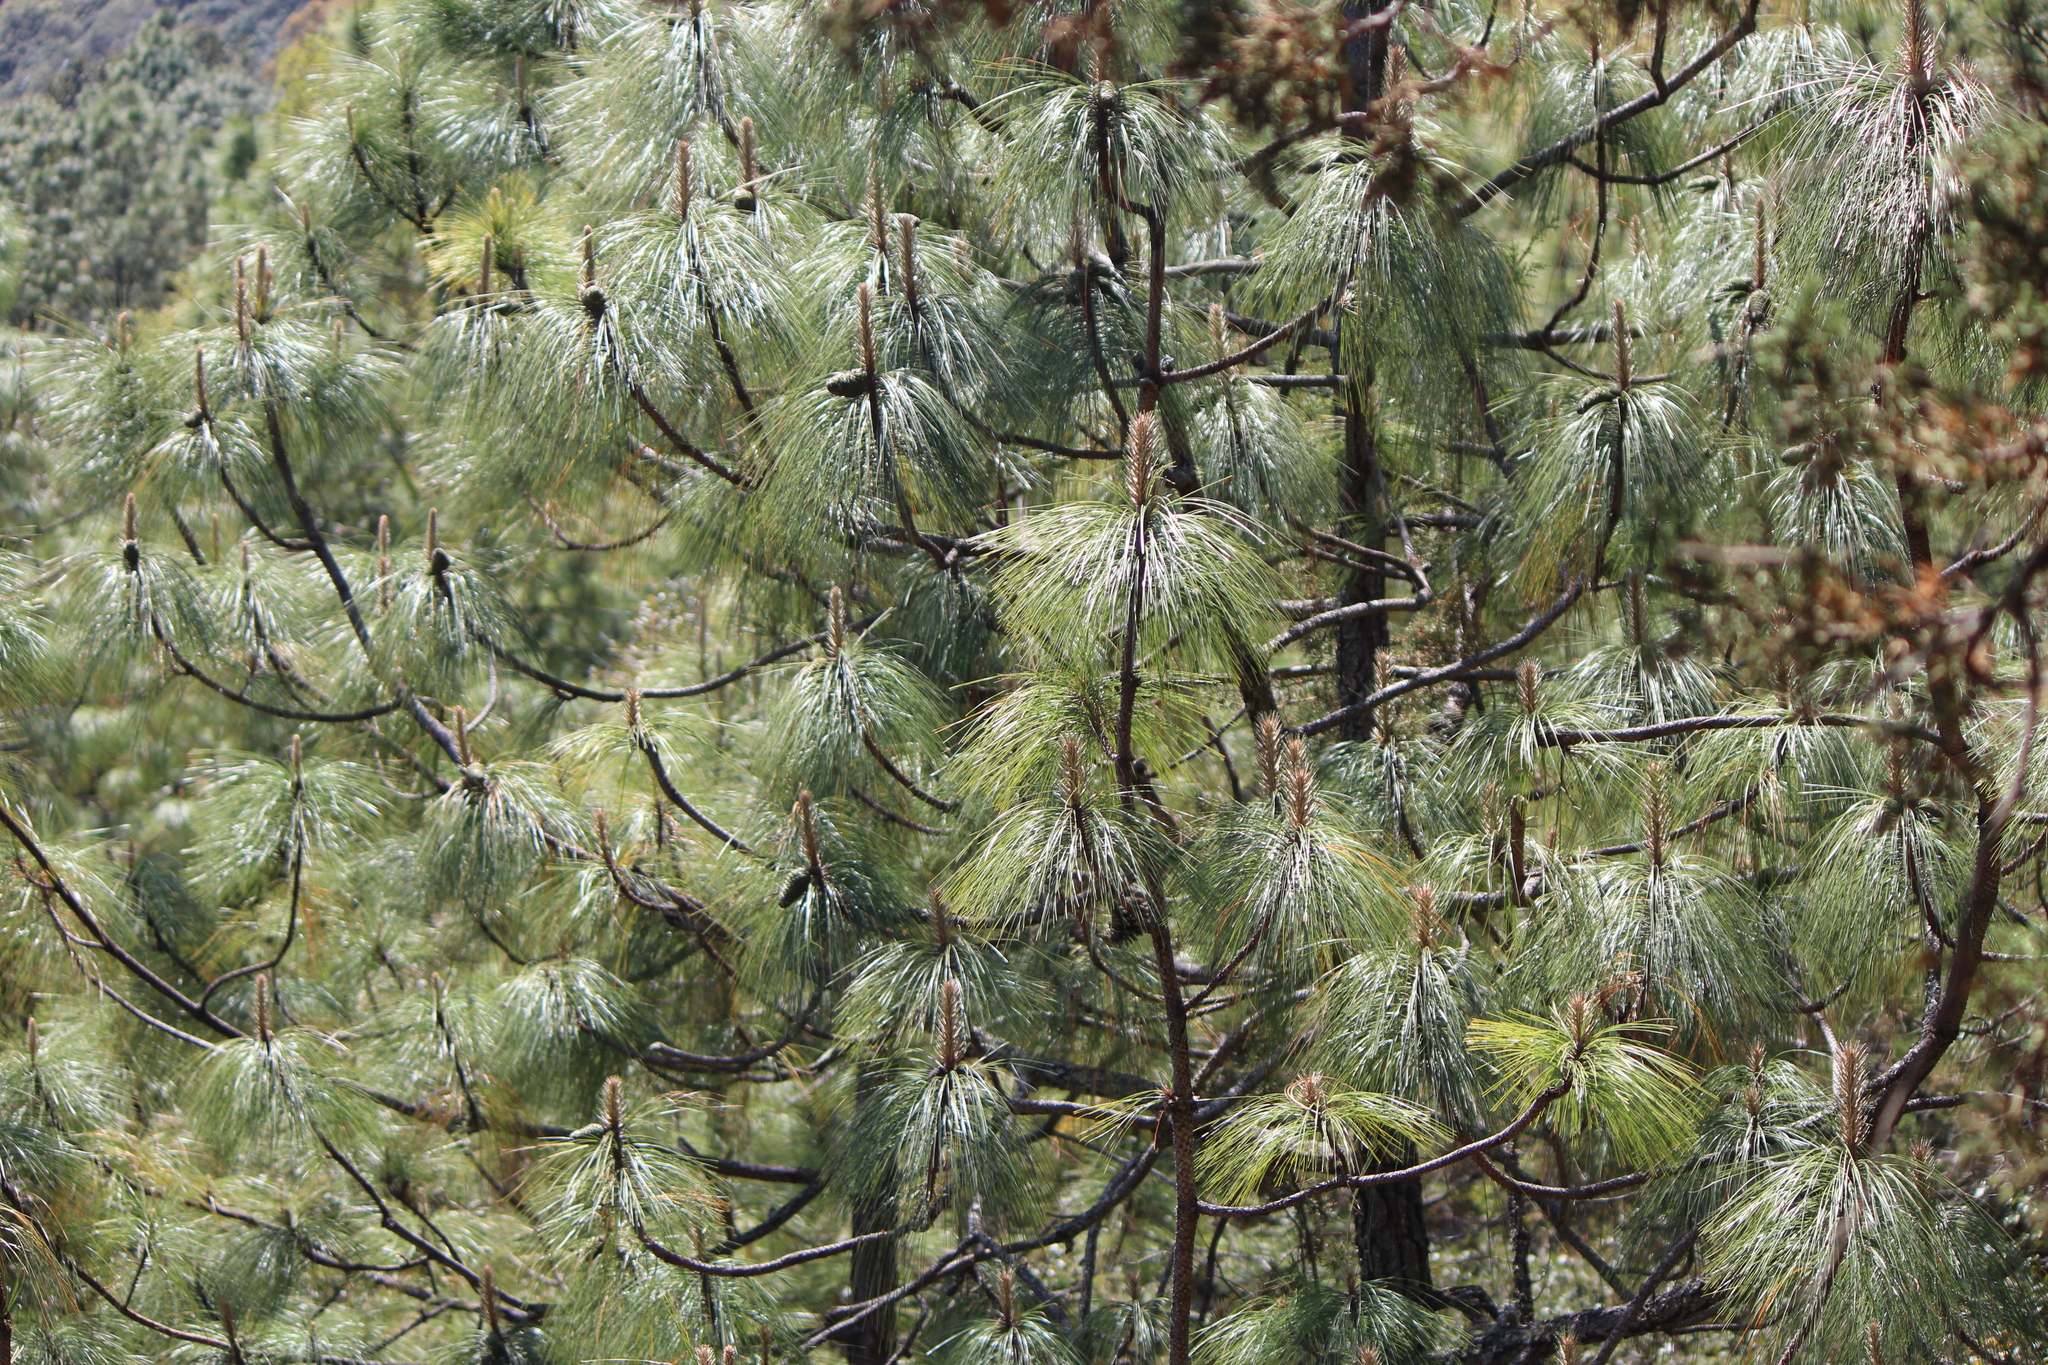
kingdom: Plantae
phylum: Tracheophyta
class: Pinopsida
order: Pinales
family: Pinaceae
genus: Pinus
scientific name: Pinus pseudostrobus
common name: False weymouth pine
